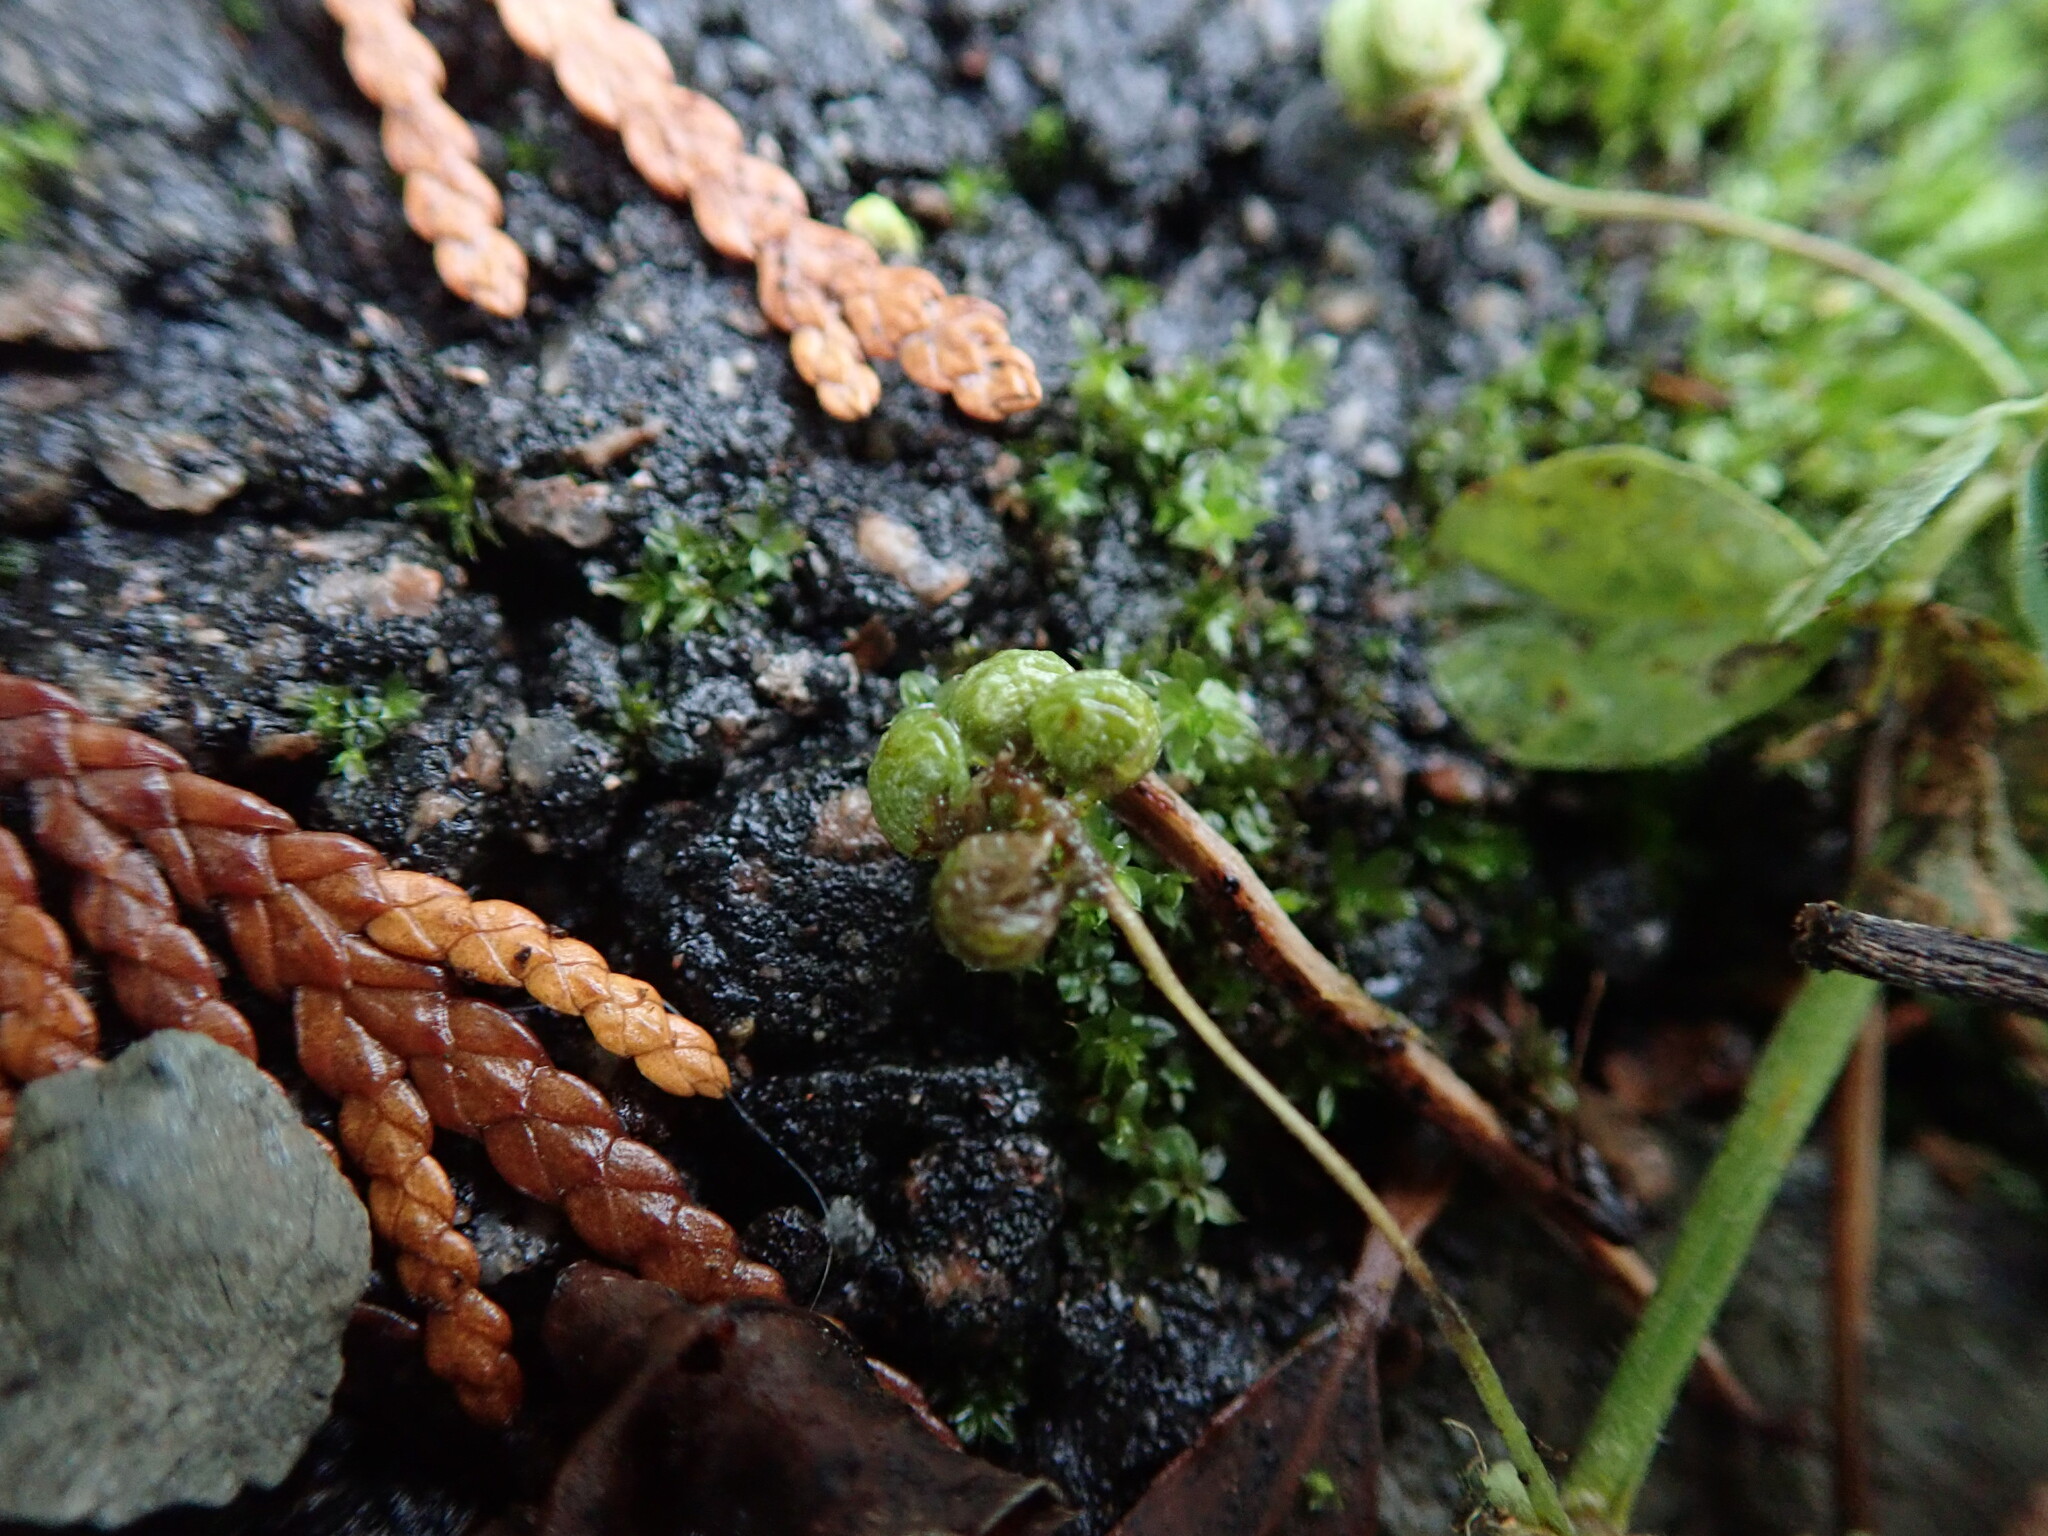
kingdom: Plantae
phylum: Tracheophyta
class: Magnoliopsida
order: Fabales
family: Fabaceae
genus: Medicago
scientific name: Medicago lupulina
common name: Black medick
